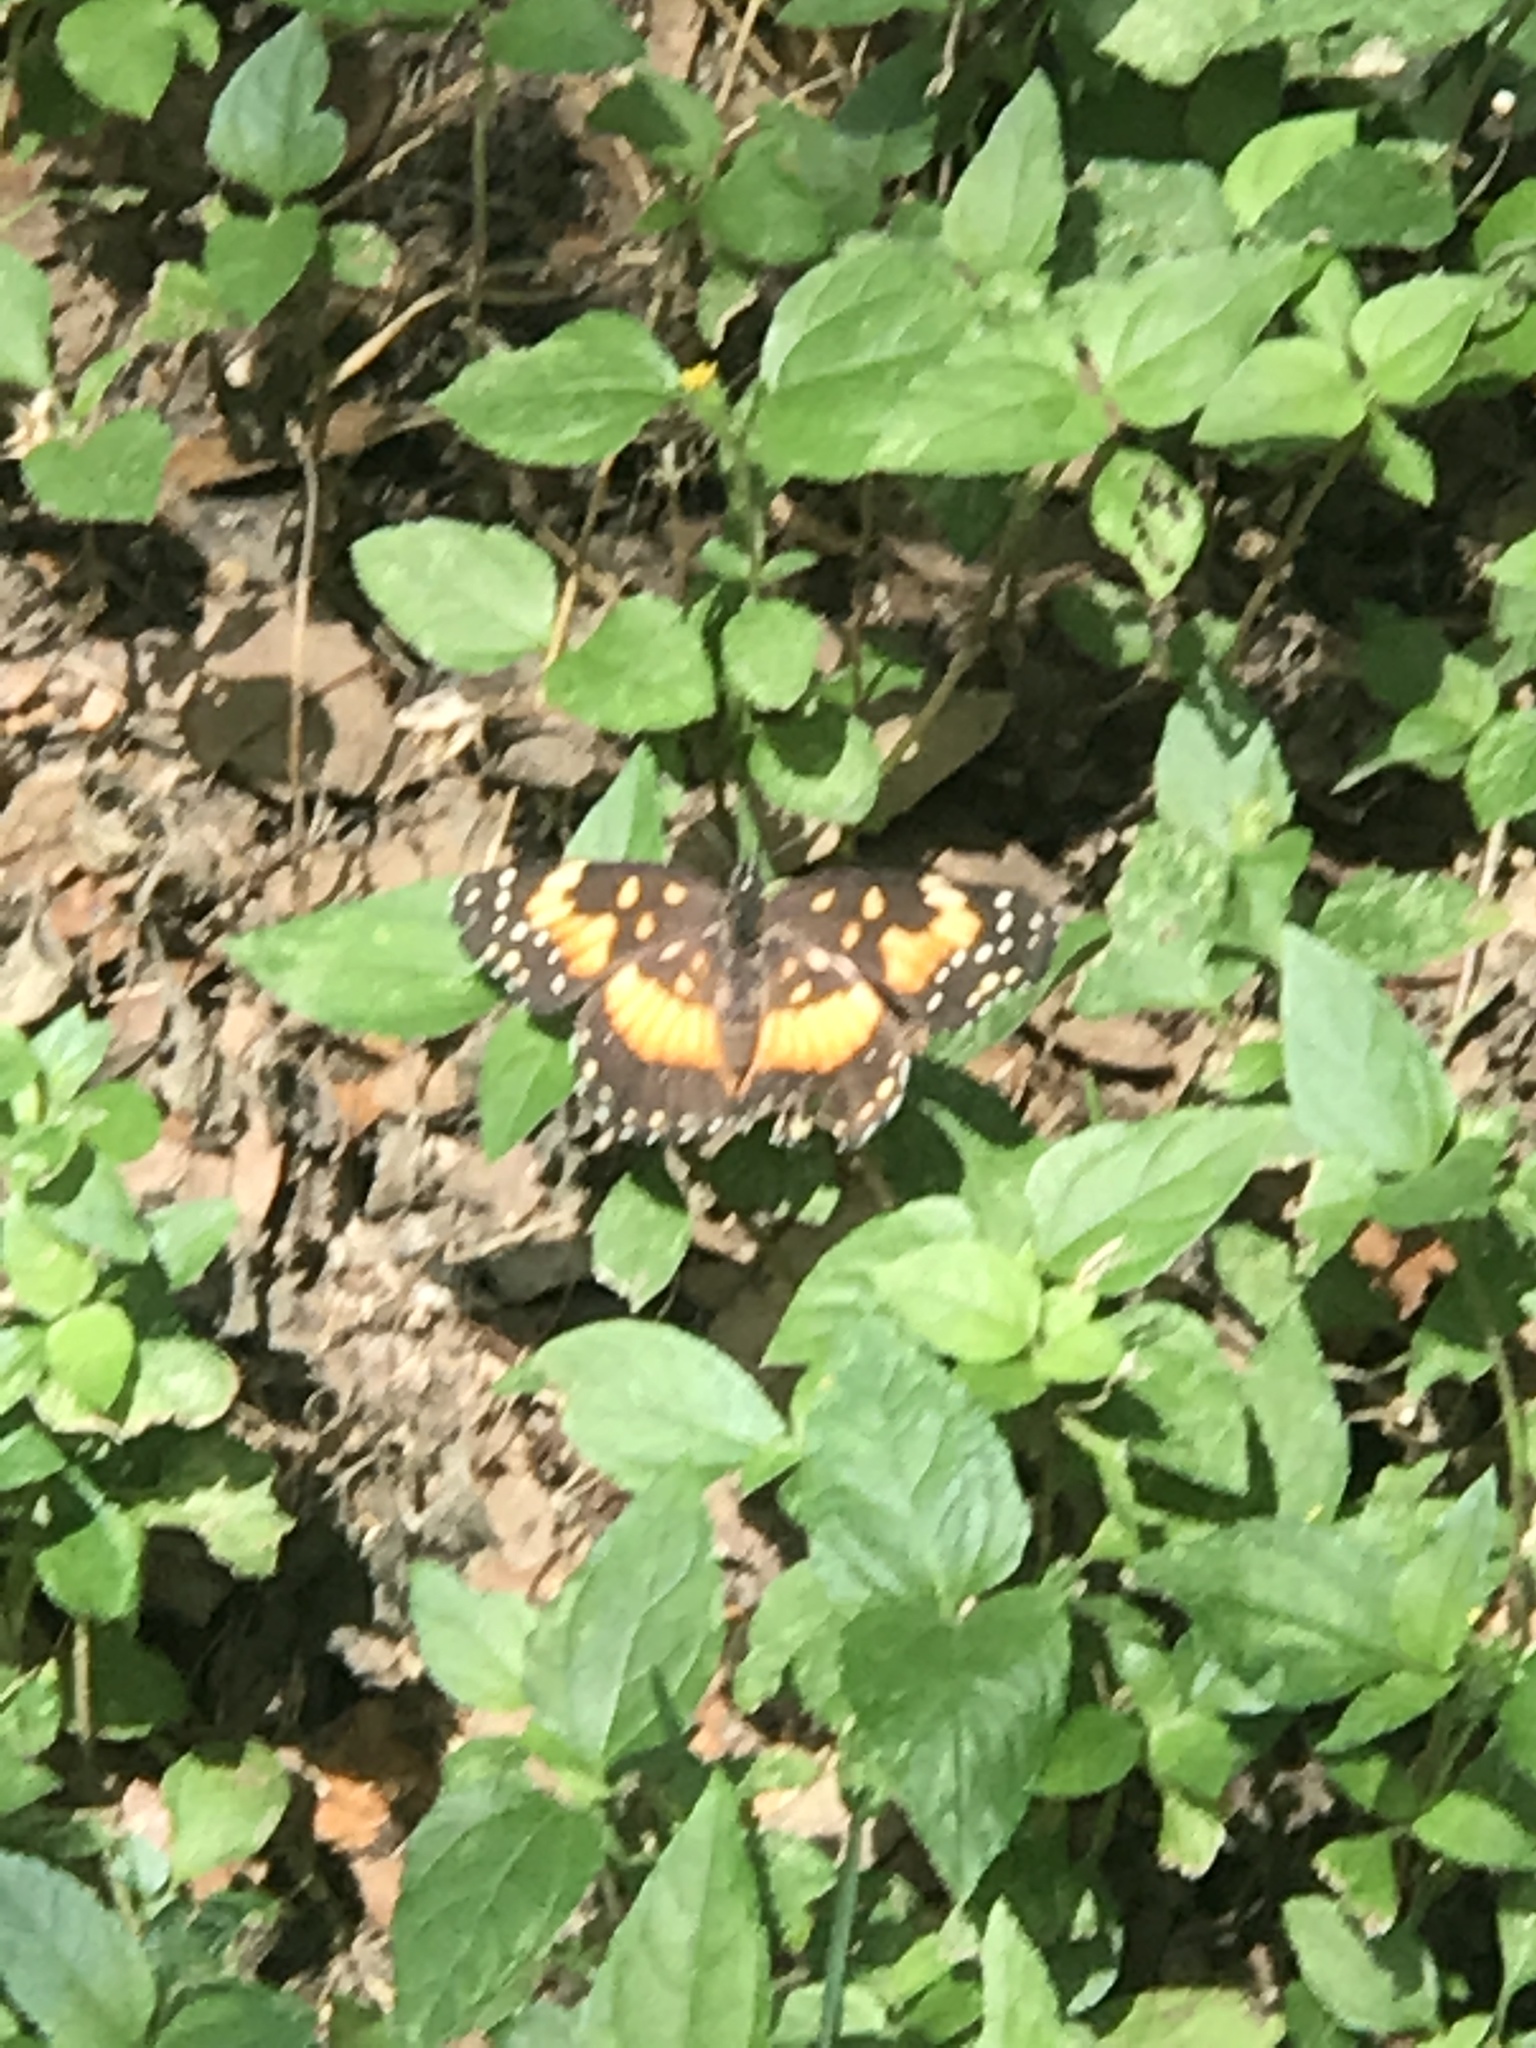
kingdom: Animalia
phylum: Arthropoda
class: Insecta
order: Lepidoptera
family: Nymphalidae
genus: Chlosyne
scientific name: Chlosyne lacinia
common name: Bordered patch
